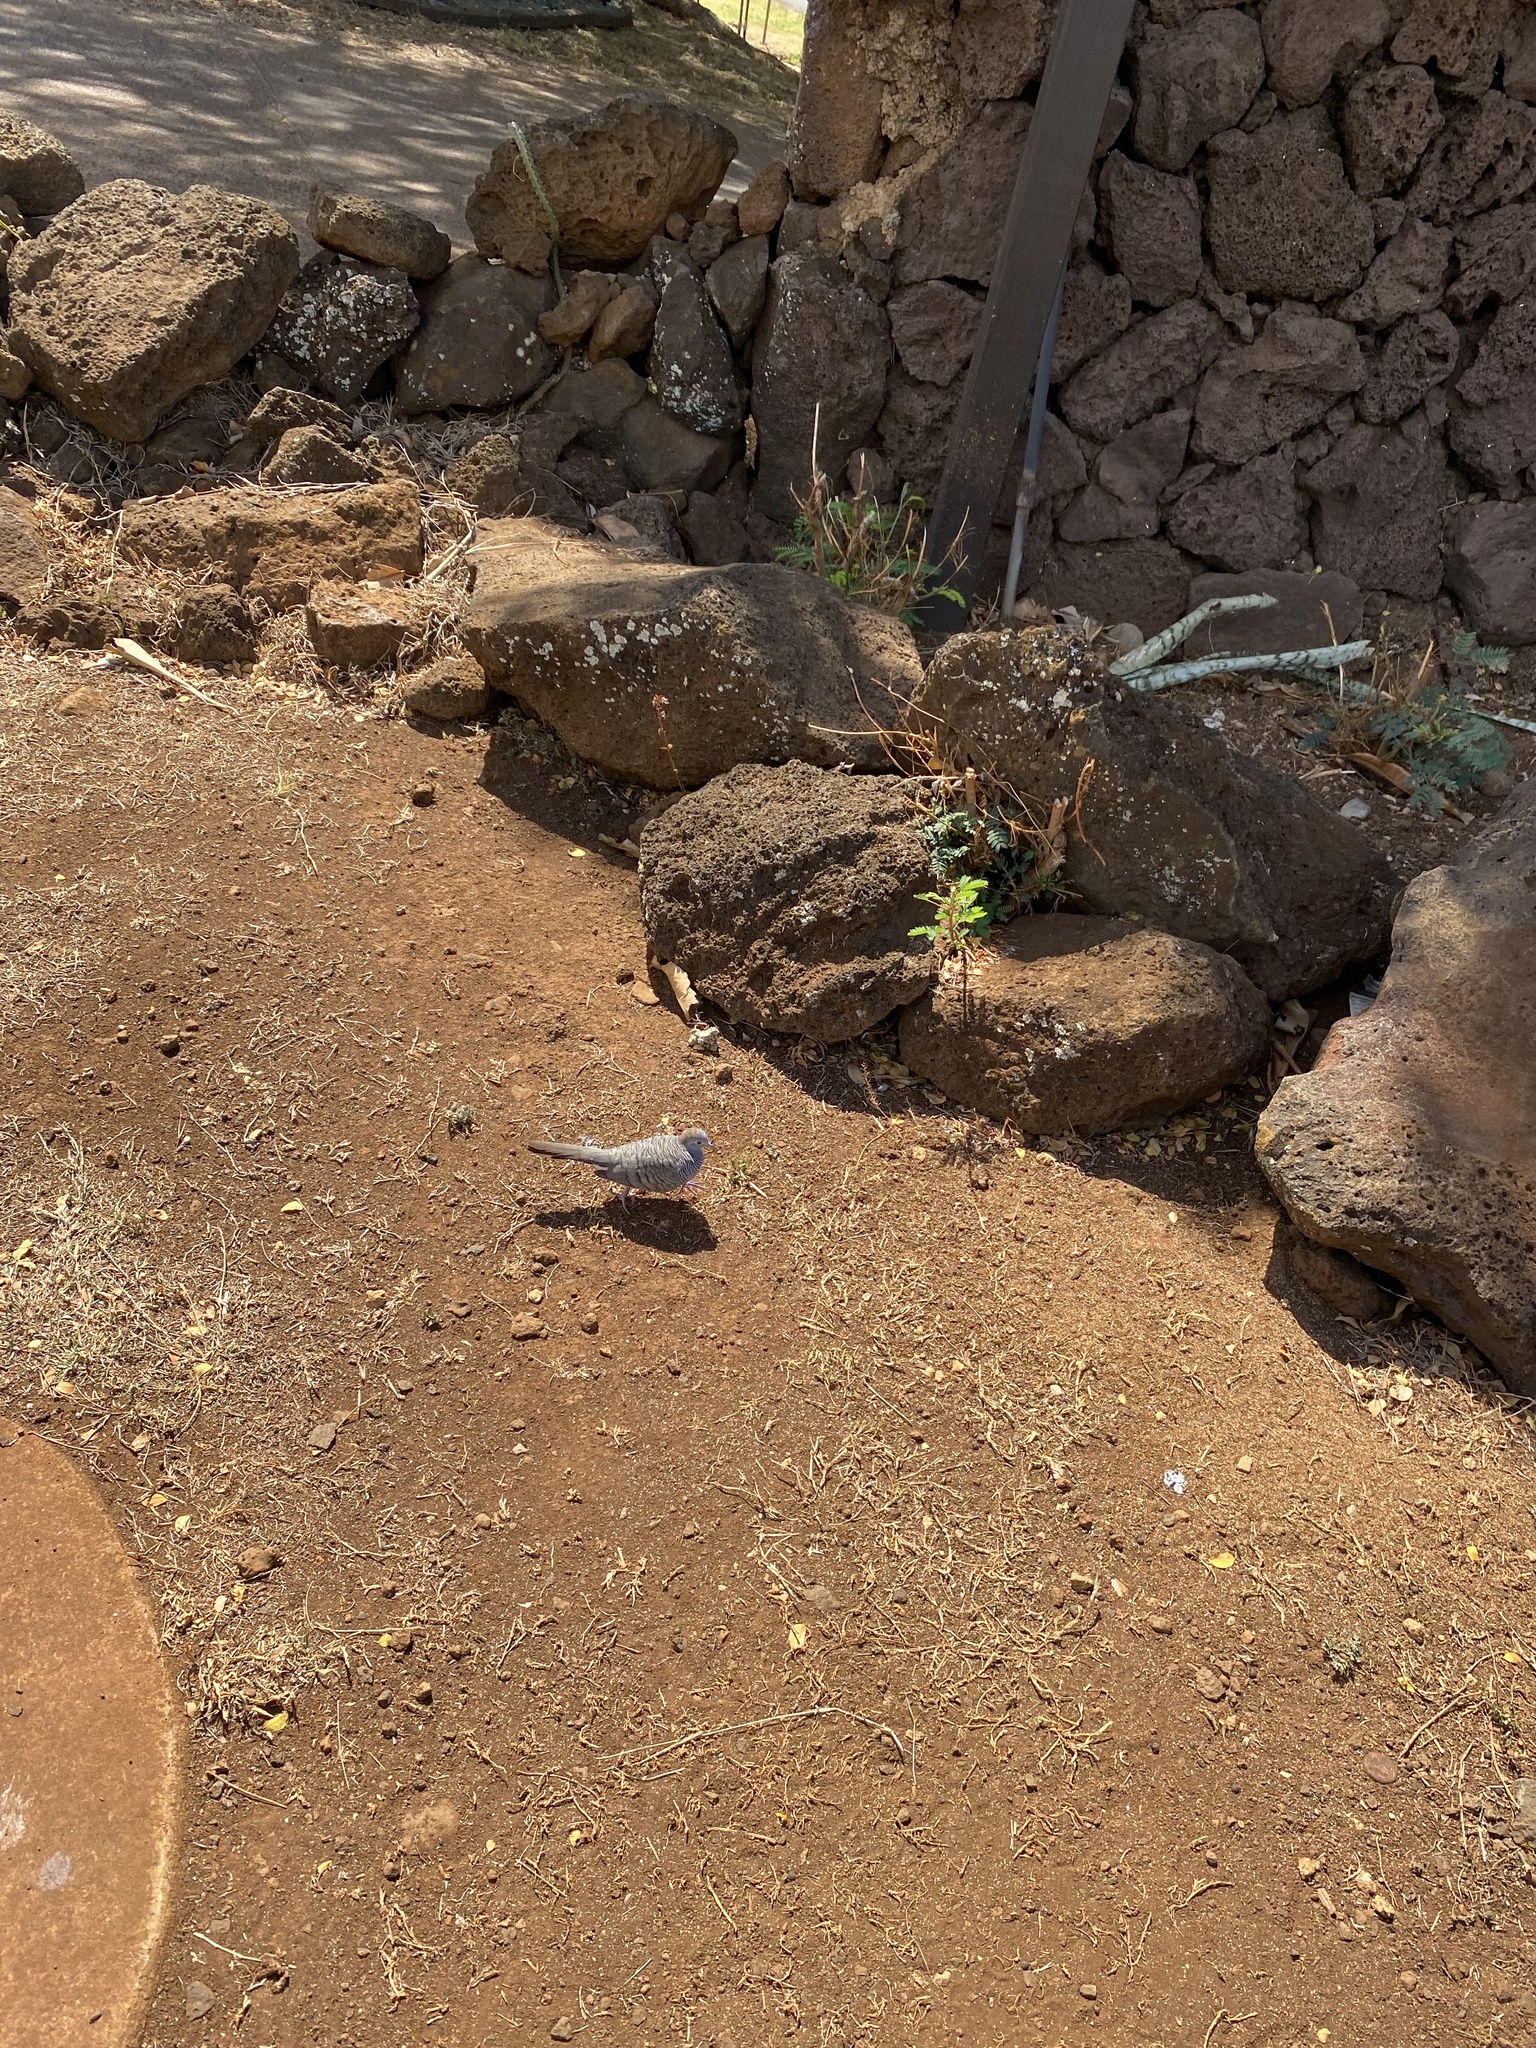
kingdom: Animalia
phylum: Chordata
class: Aves
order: Columbiformes
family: Columbidae
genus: Geopelia
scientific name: Geopelia striata
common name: Zebra dove
